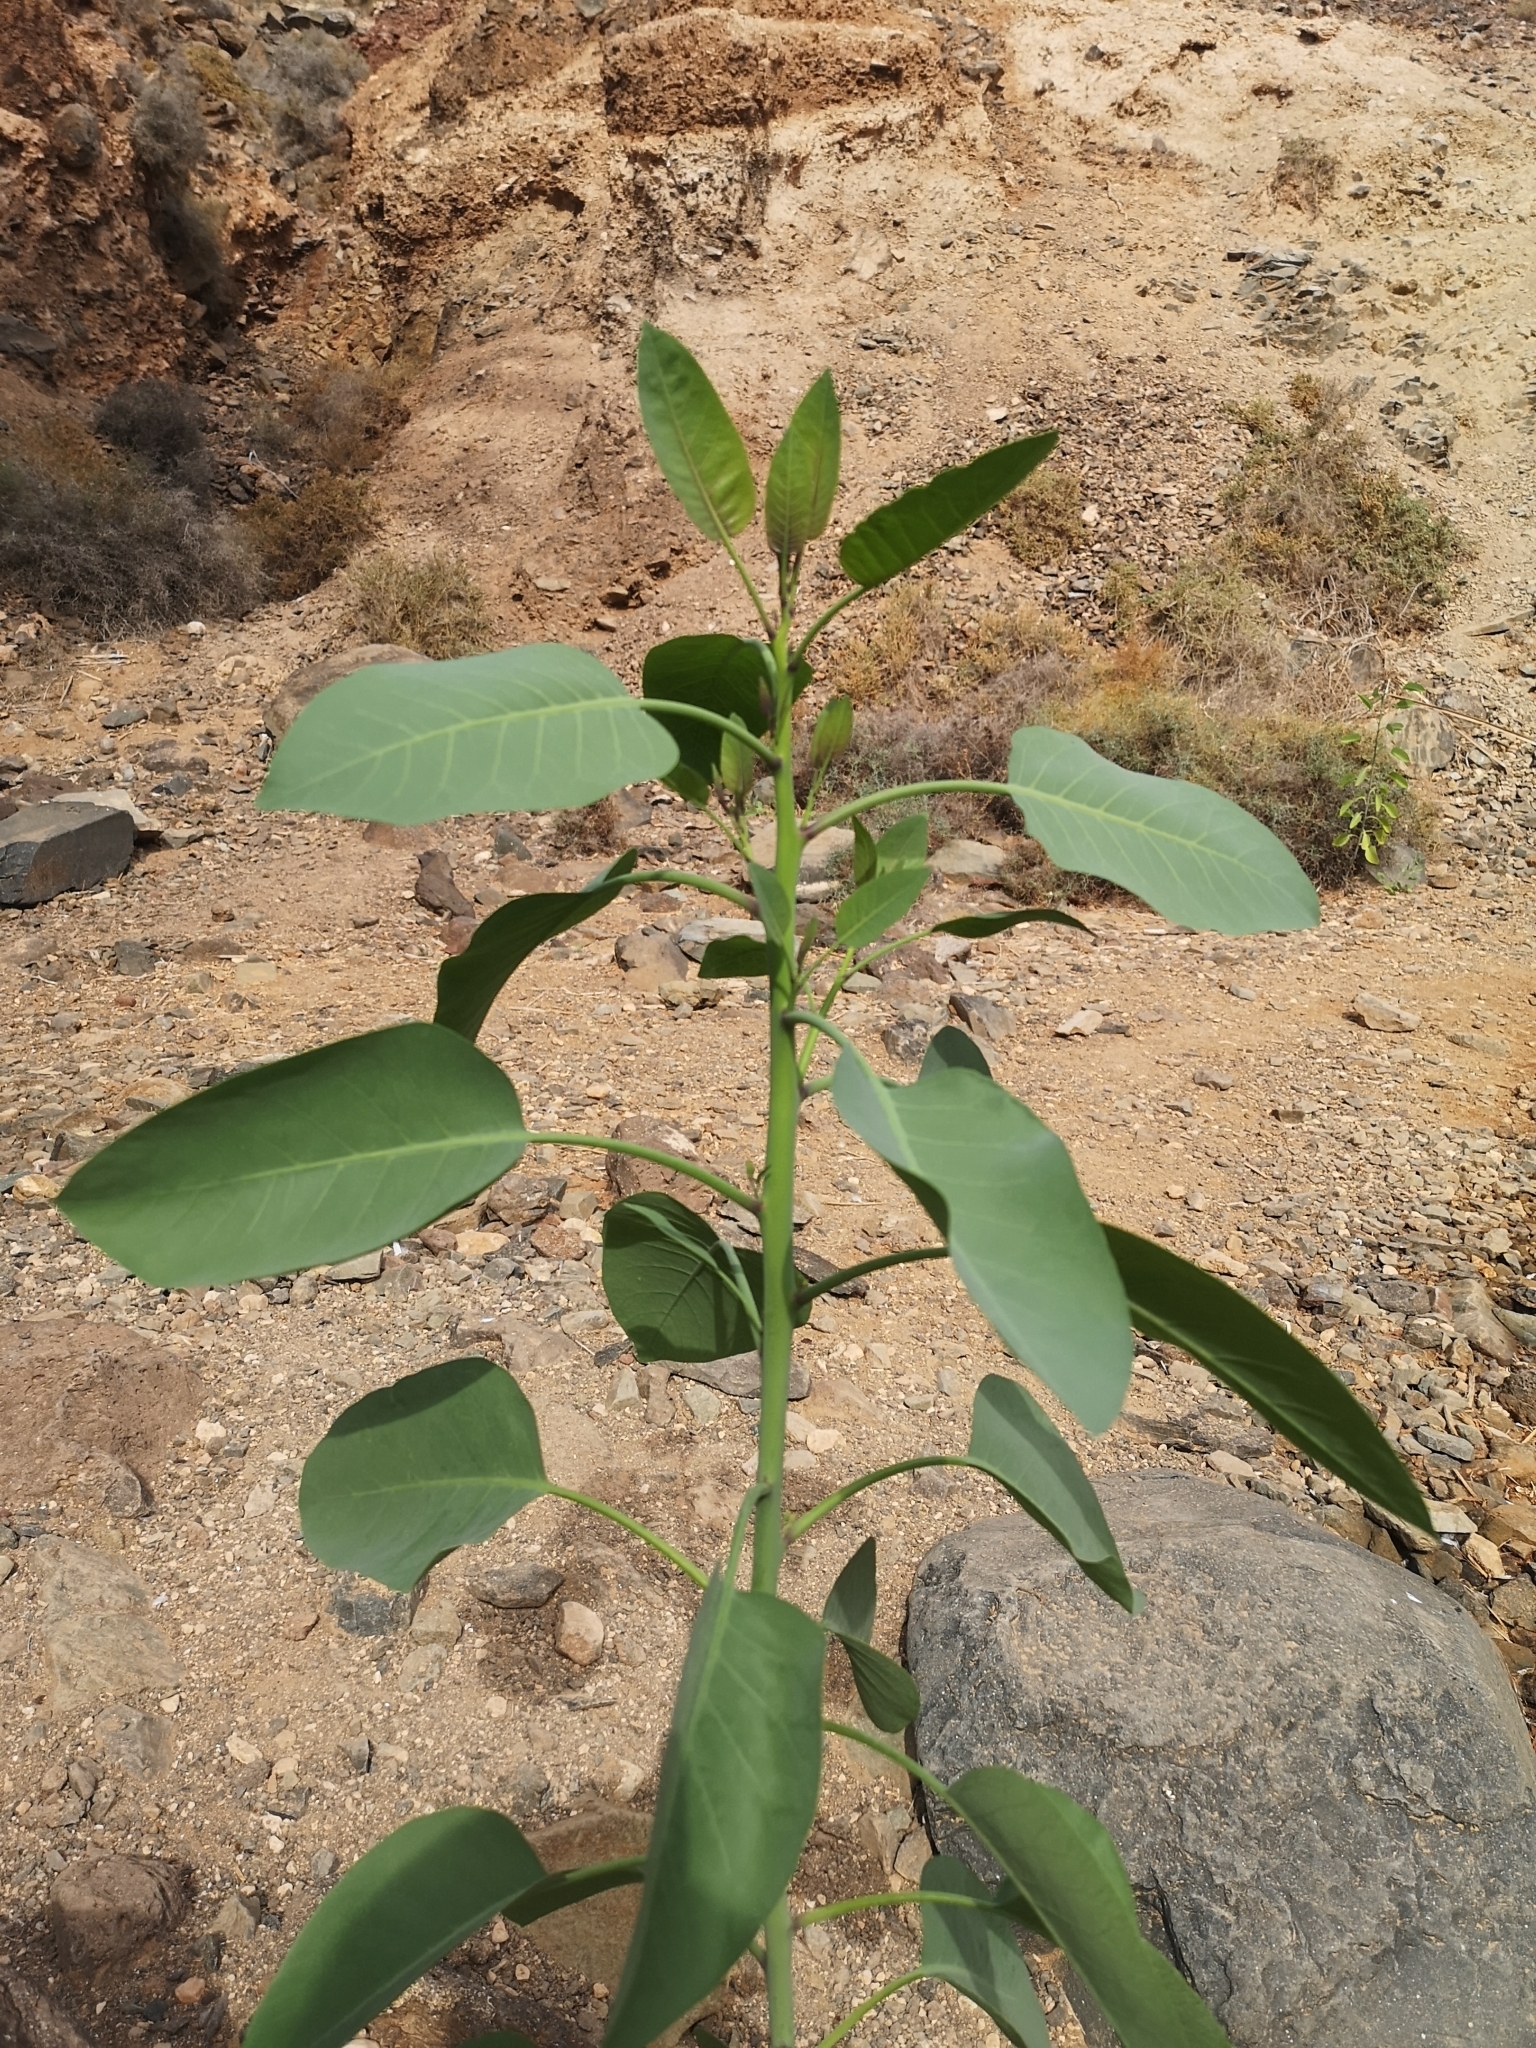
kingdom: Plantae
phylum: Tracheophyta
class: Magnoliopsida
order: Solanales
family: Solanaceae
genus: Nicotiana
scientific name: Nicotiana glauca
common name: Tree tobacco
